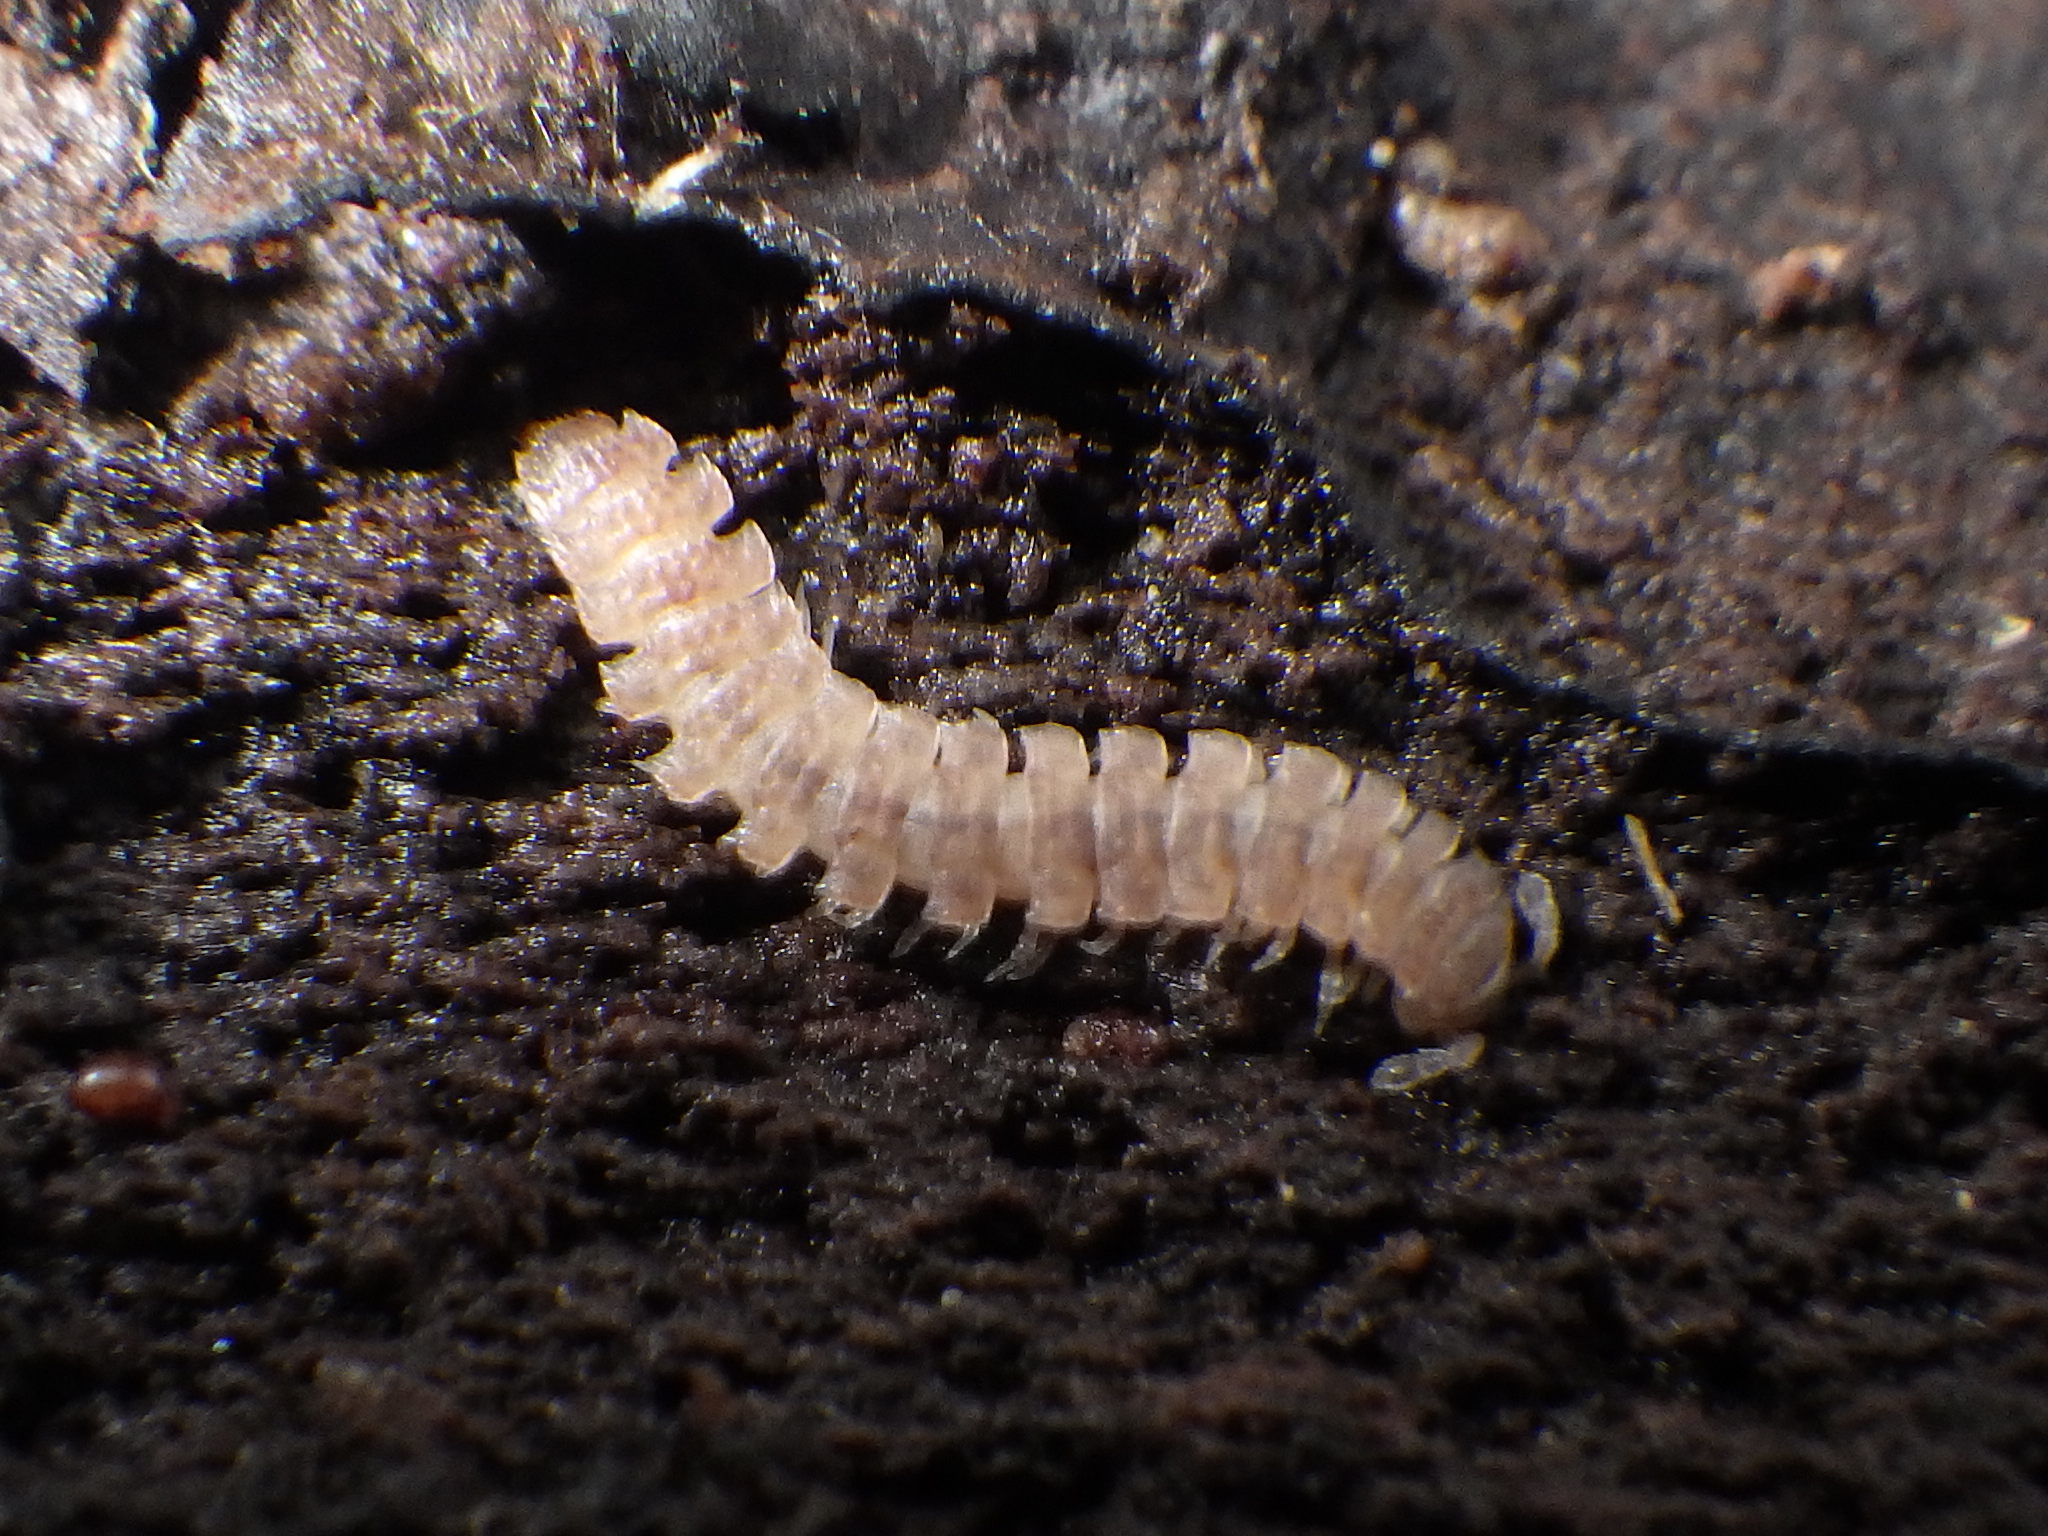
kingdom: Animalia
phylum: Arthropoda
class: Diplopoda
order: Polydesmida
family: Polydesmidae
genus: Polydesmus
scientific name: Polydesmus
